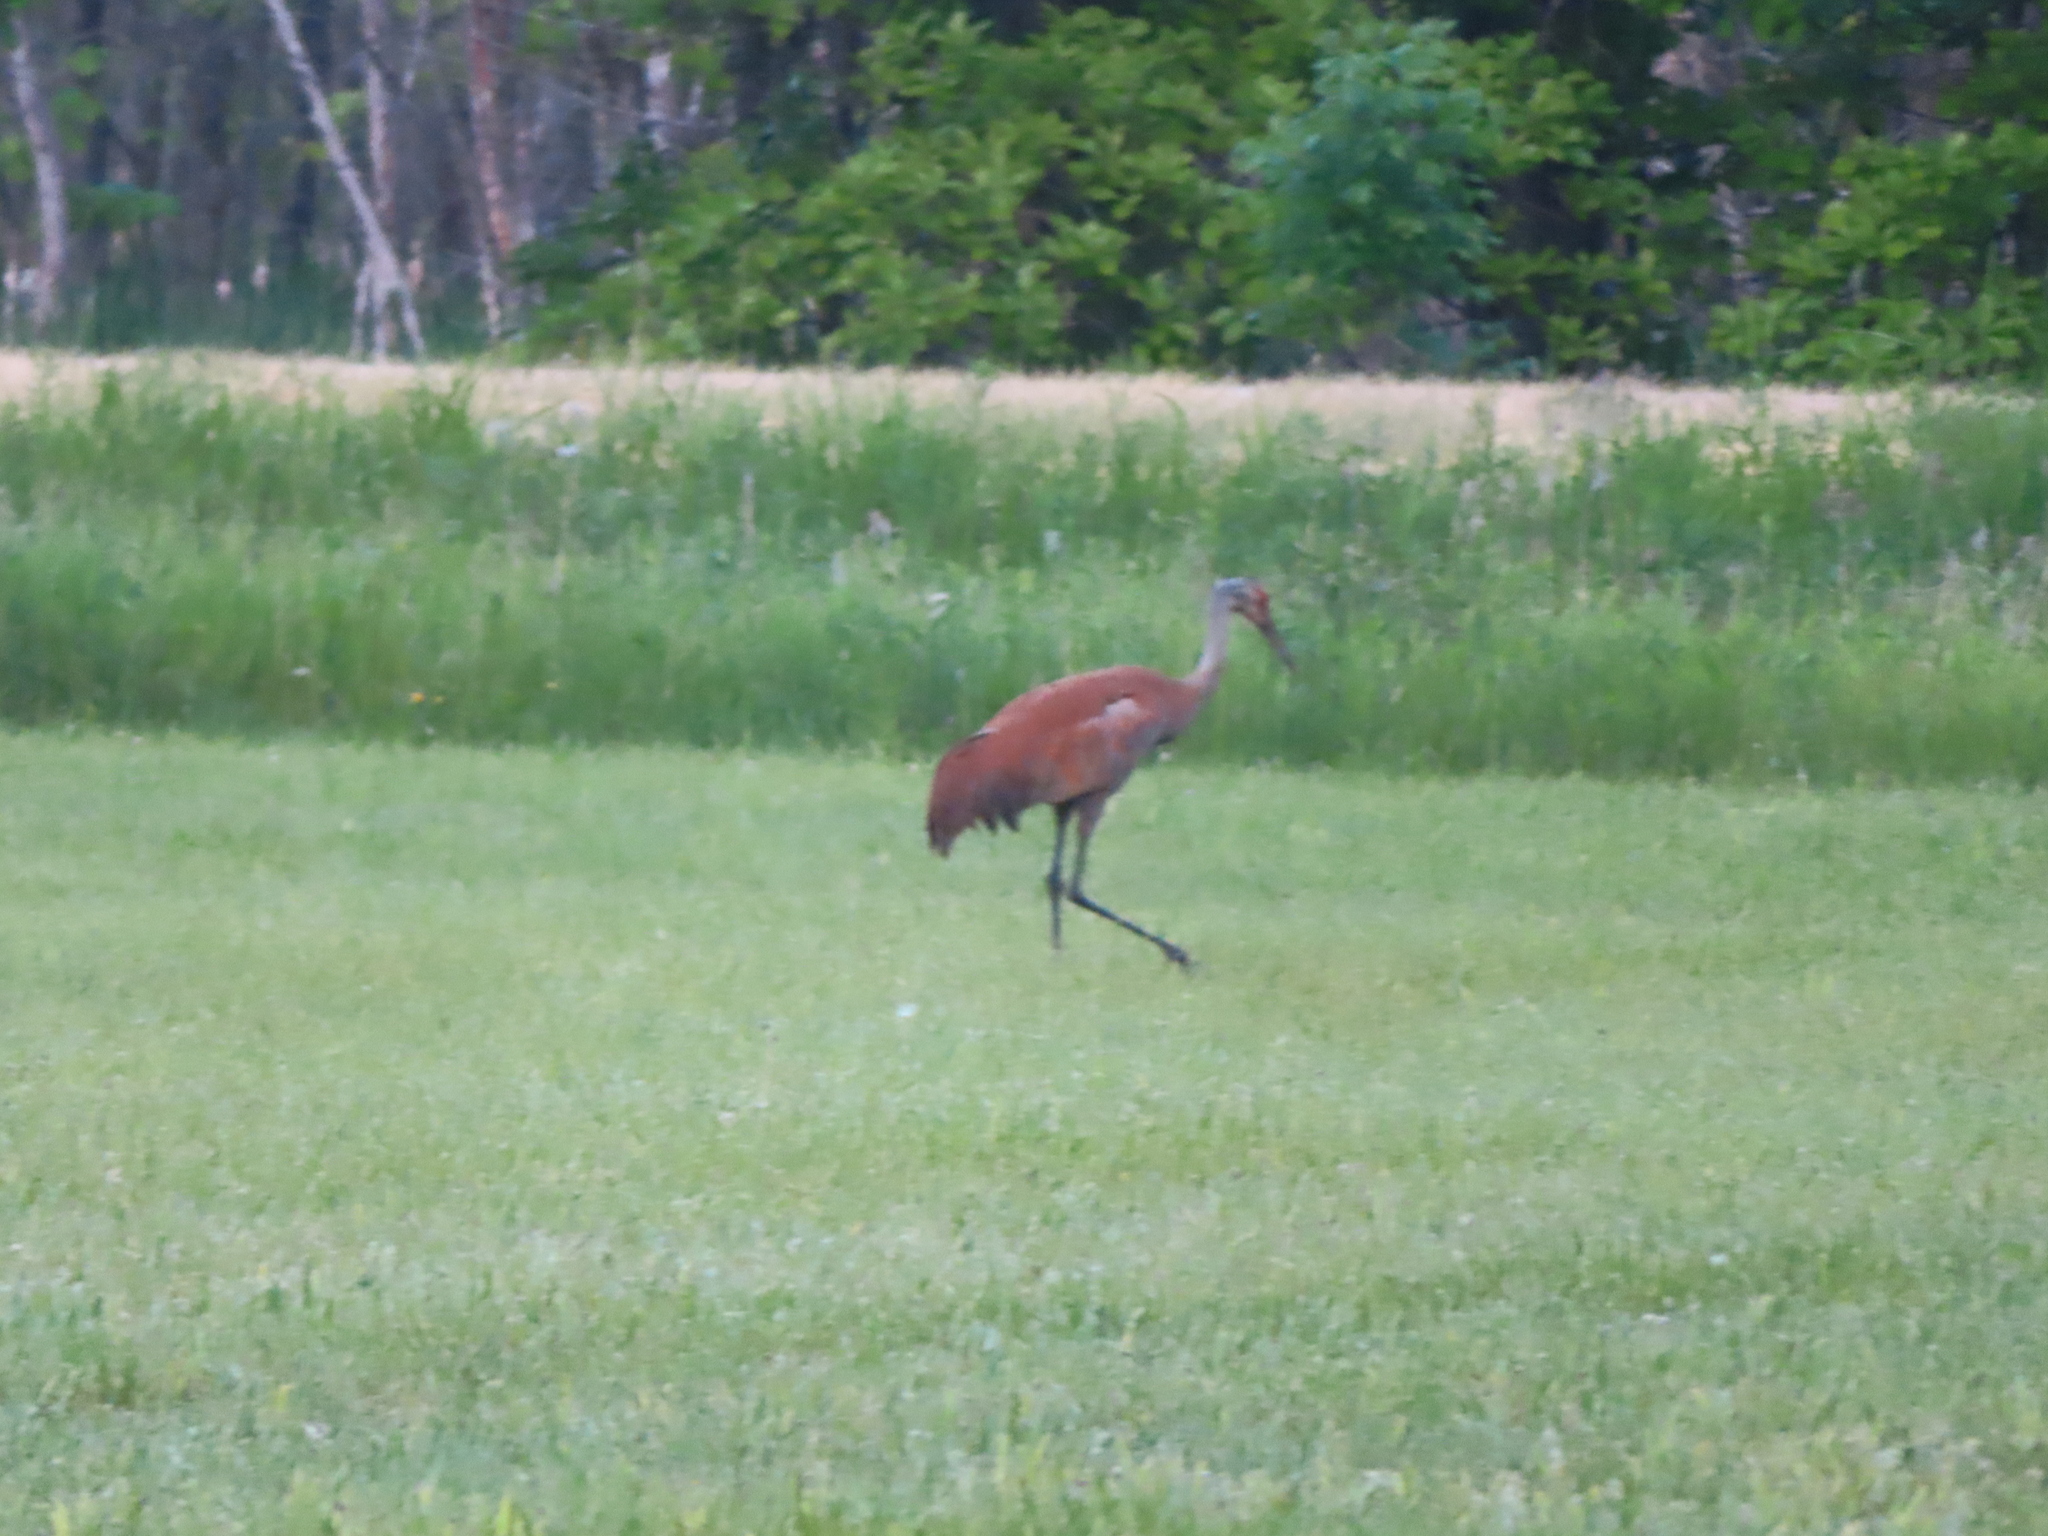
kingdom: Animalia
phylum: Chordata
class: Aves
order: Gruiformes
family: Gruidae
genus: Grus
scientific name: Grus canadensis
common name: Sandhill crane
